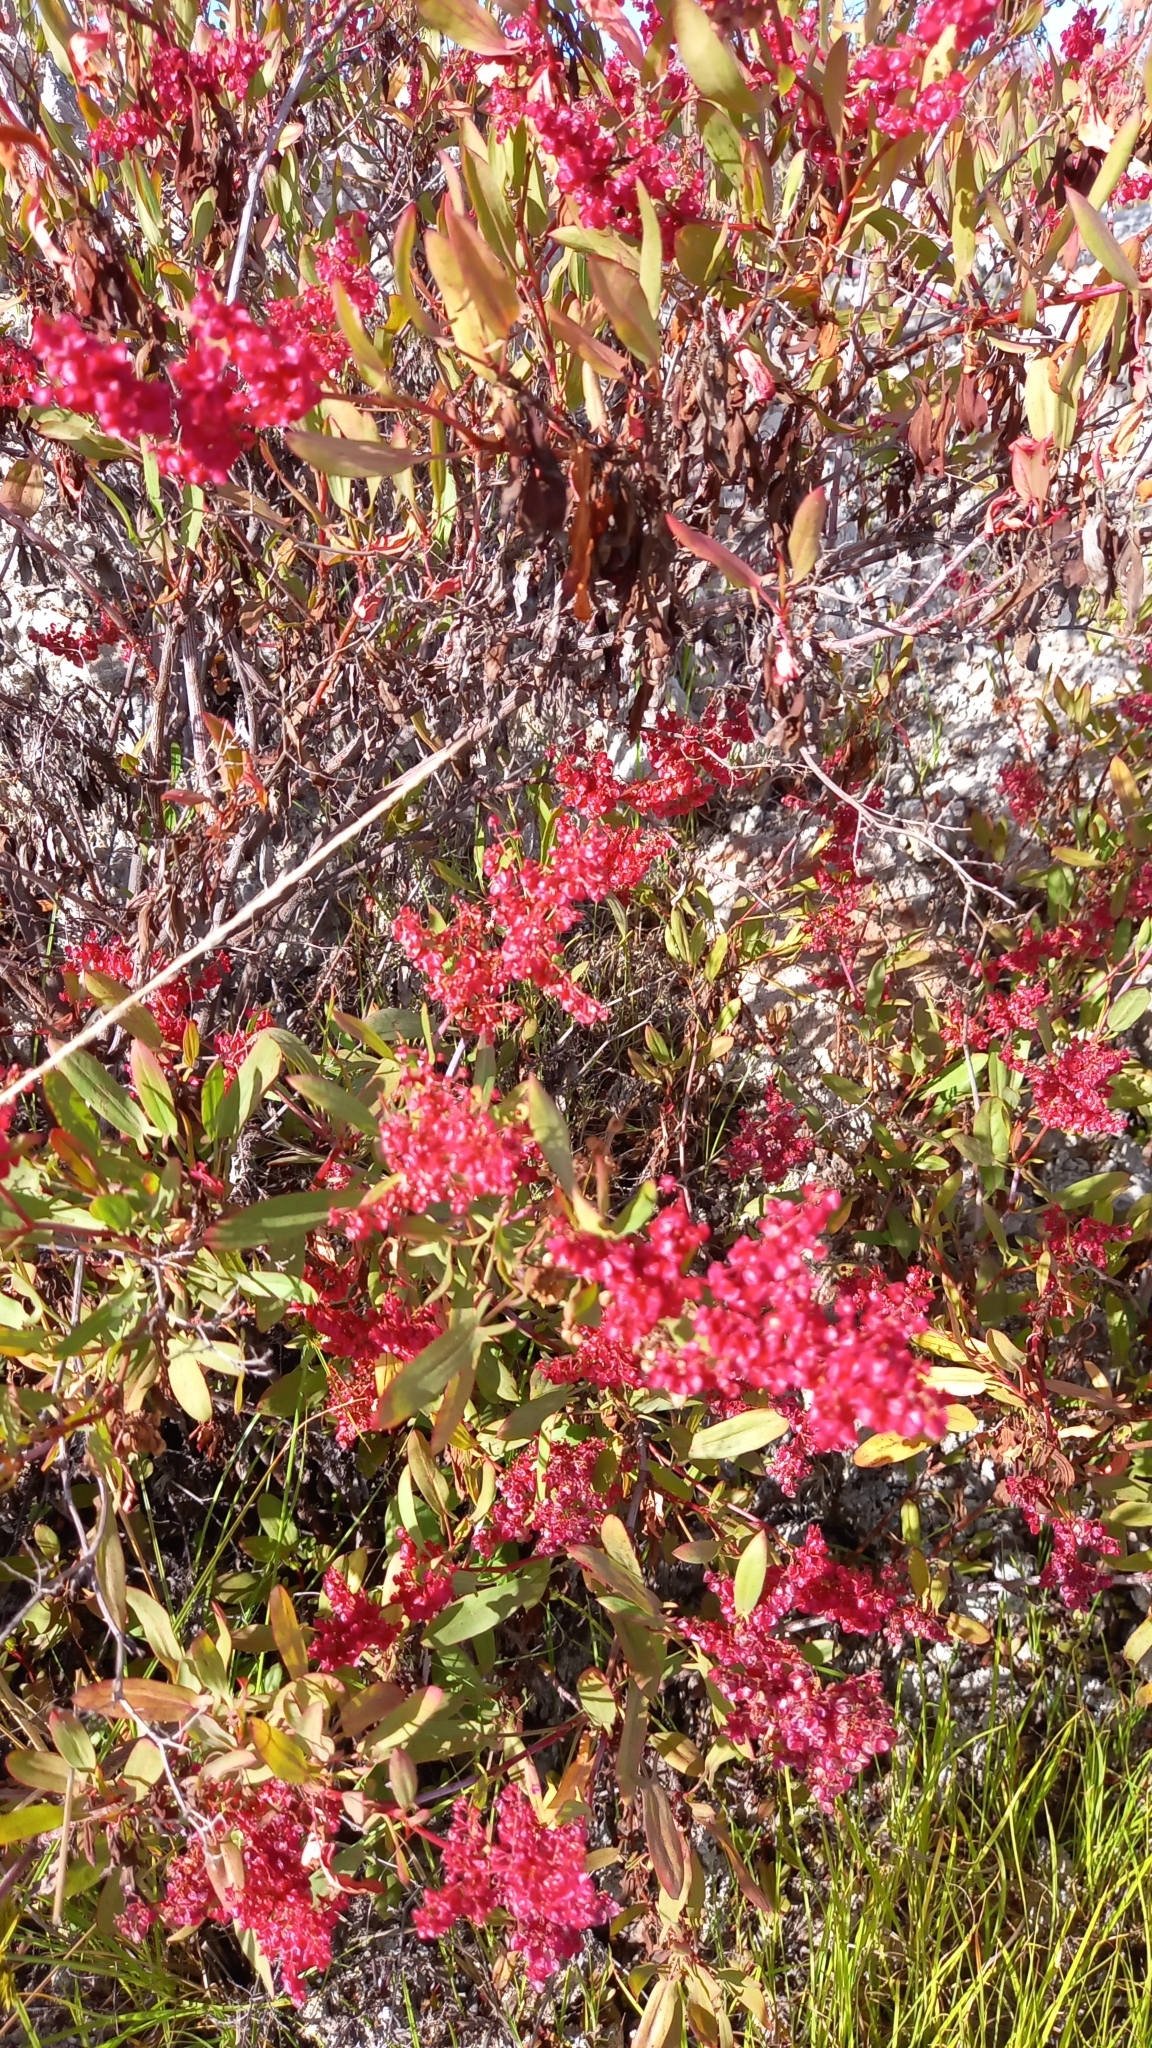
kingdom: Plantae
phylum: Tracheophyta
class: Magnoliopsida
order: Caryophyllales
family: Polygonaceae
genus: Rumex
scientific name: Rumex usambarensis
